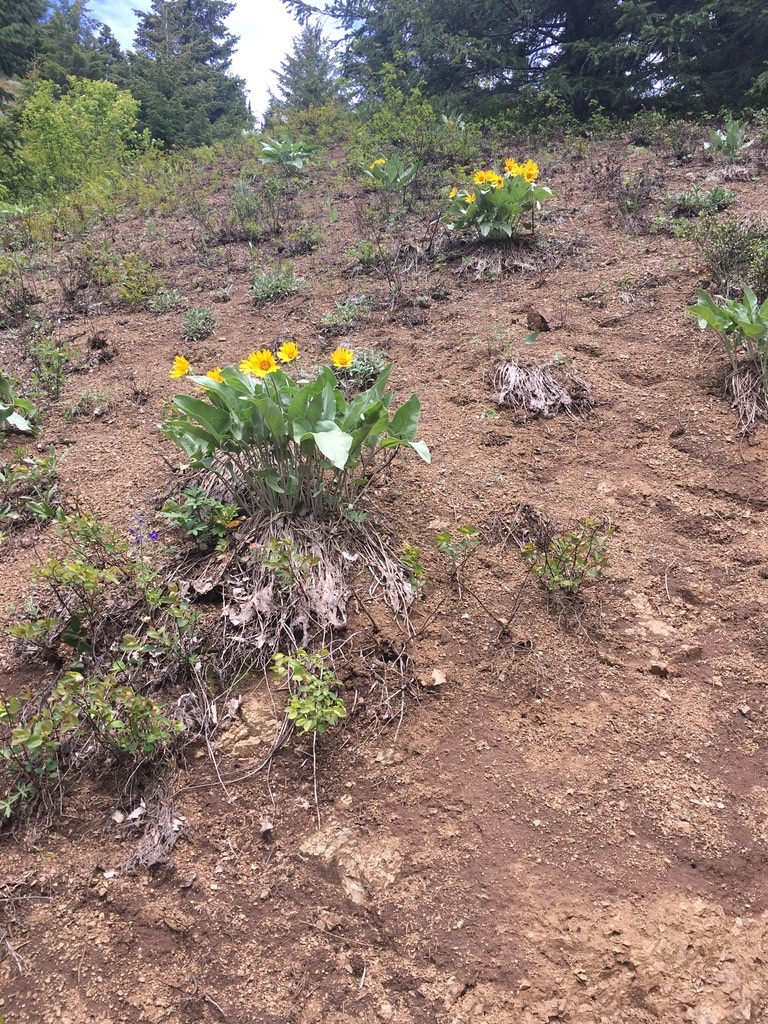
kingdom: Plantae
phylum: Tracheophyta
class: Magnoliopsida
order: Asterales
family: Asteraceae
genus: Wyethia
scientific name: Wyethia sagittata
